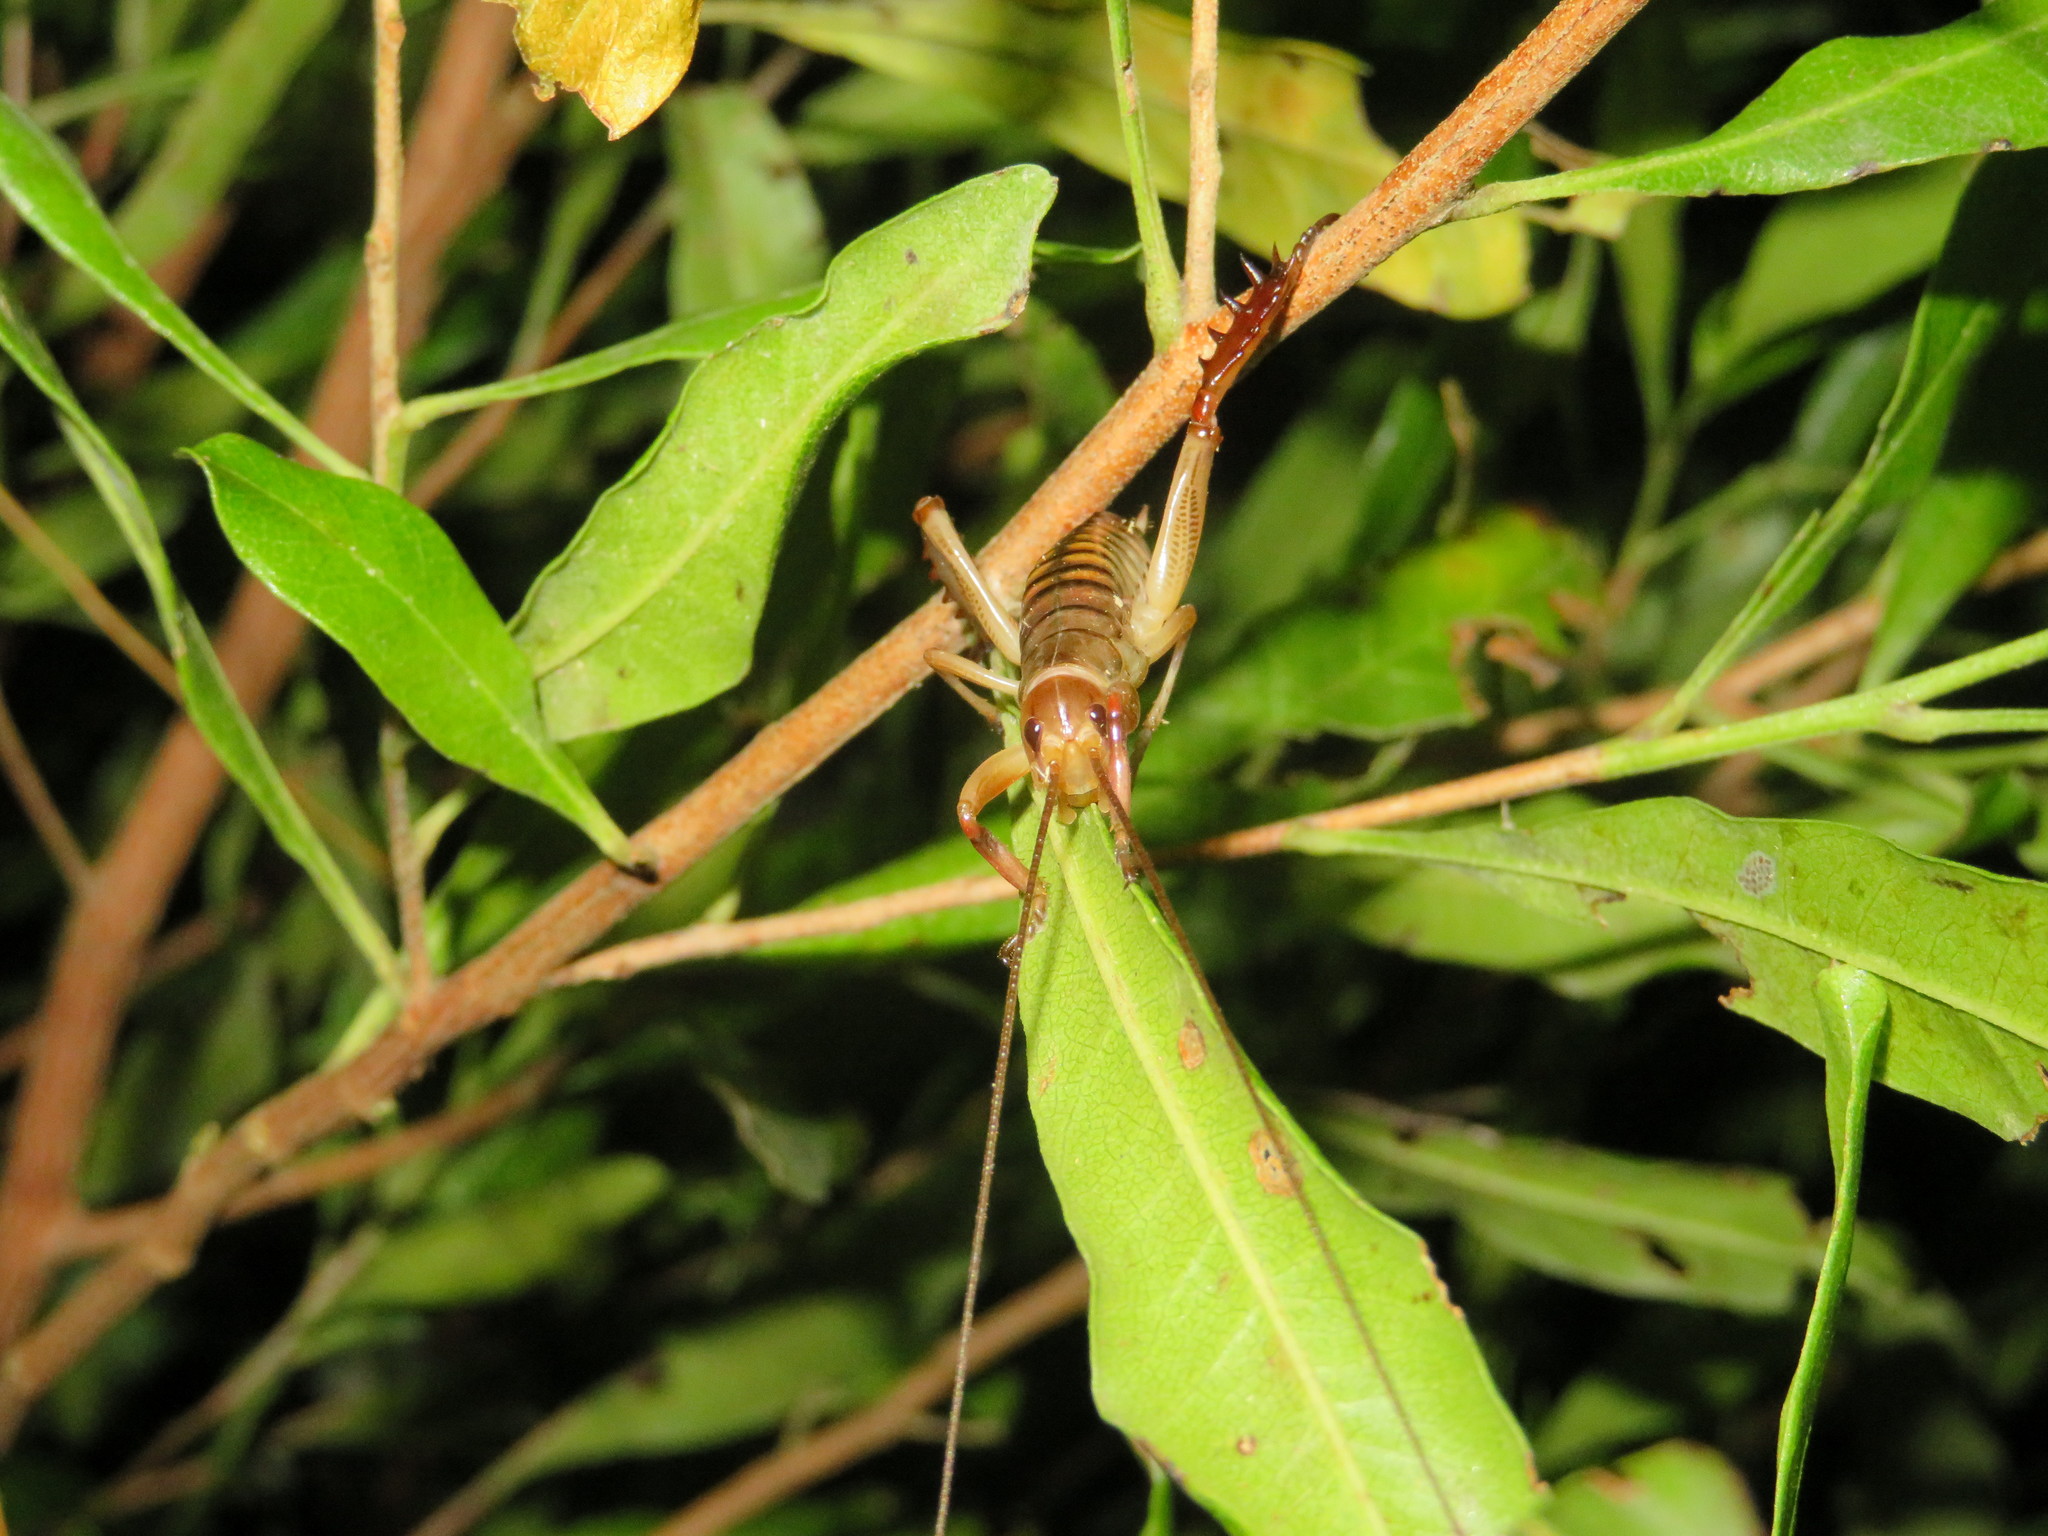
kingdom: Animalia
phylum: Arthropoda
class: Insecta
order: Orthoptera
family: Anostostomatidae
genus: Hemideina
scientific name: Hemideina crassidens
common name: Wellington tree weta
